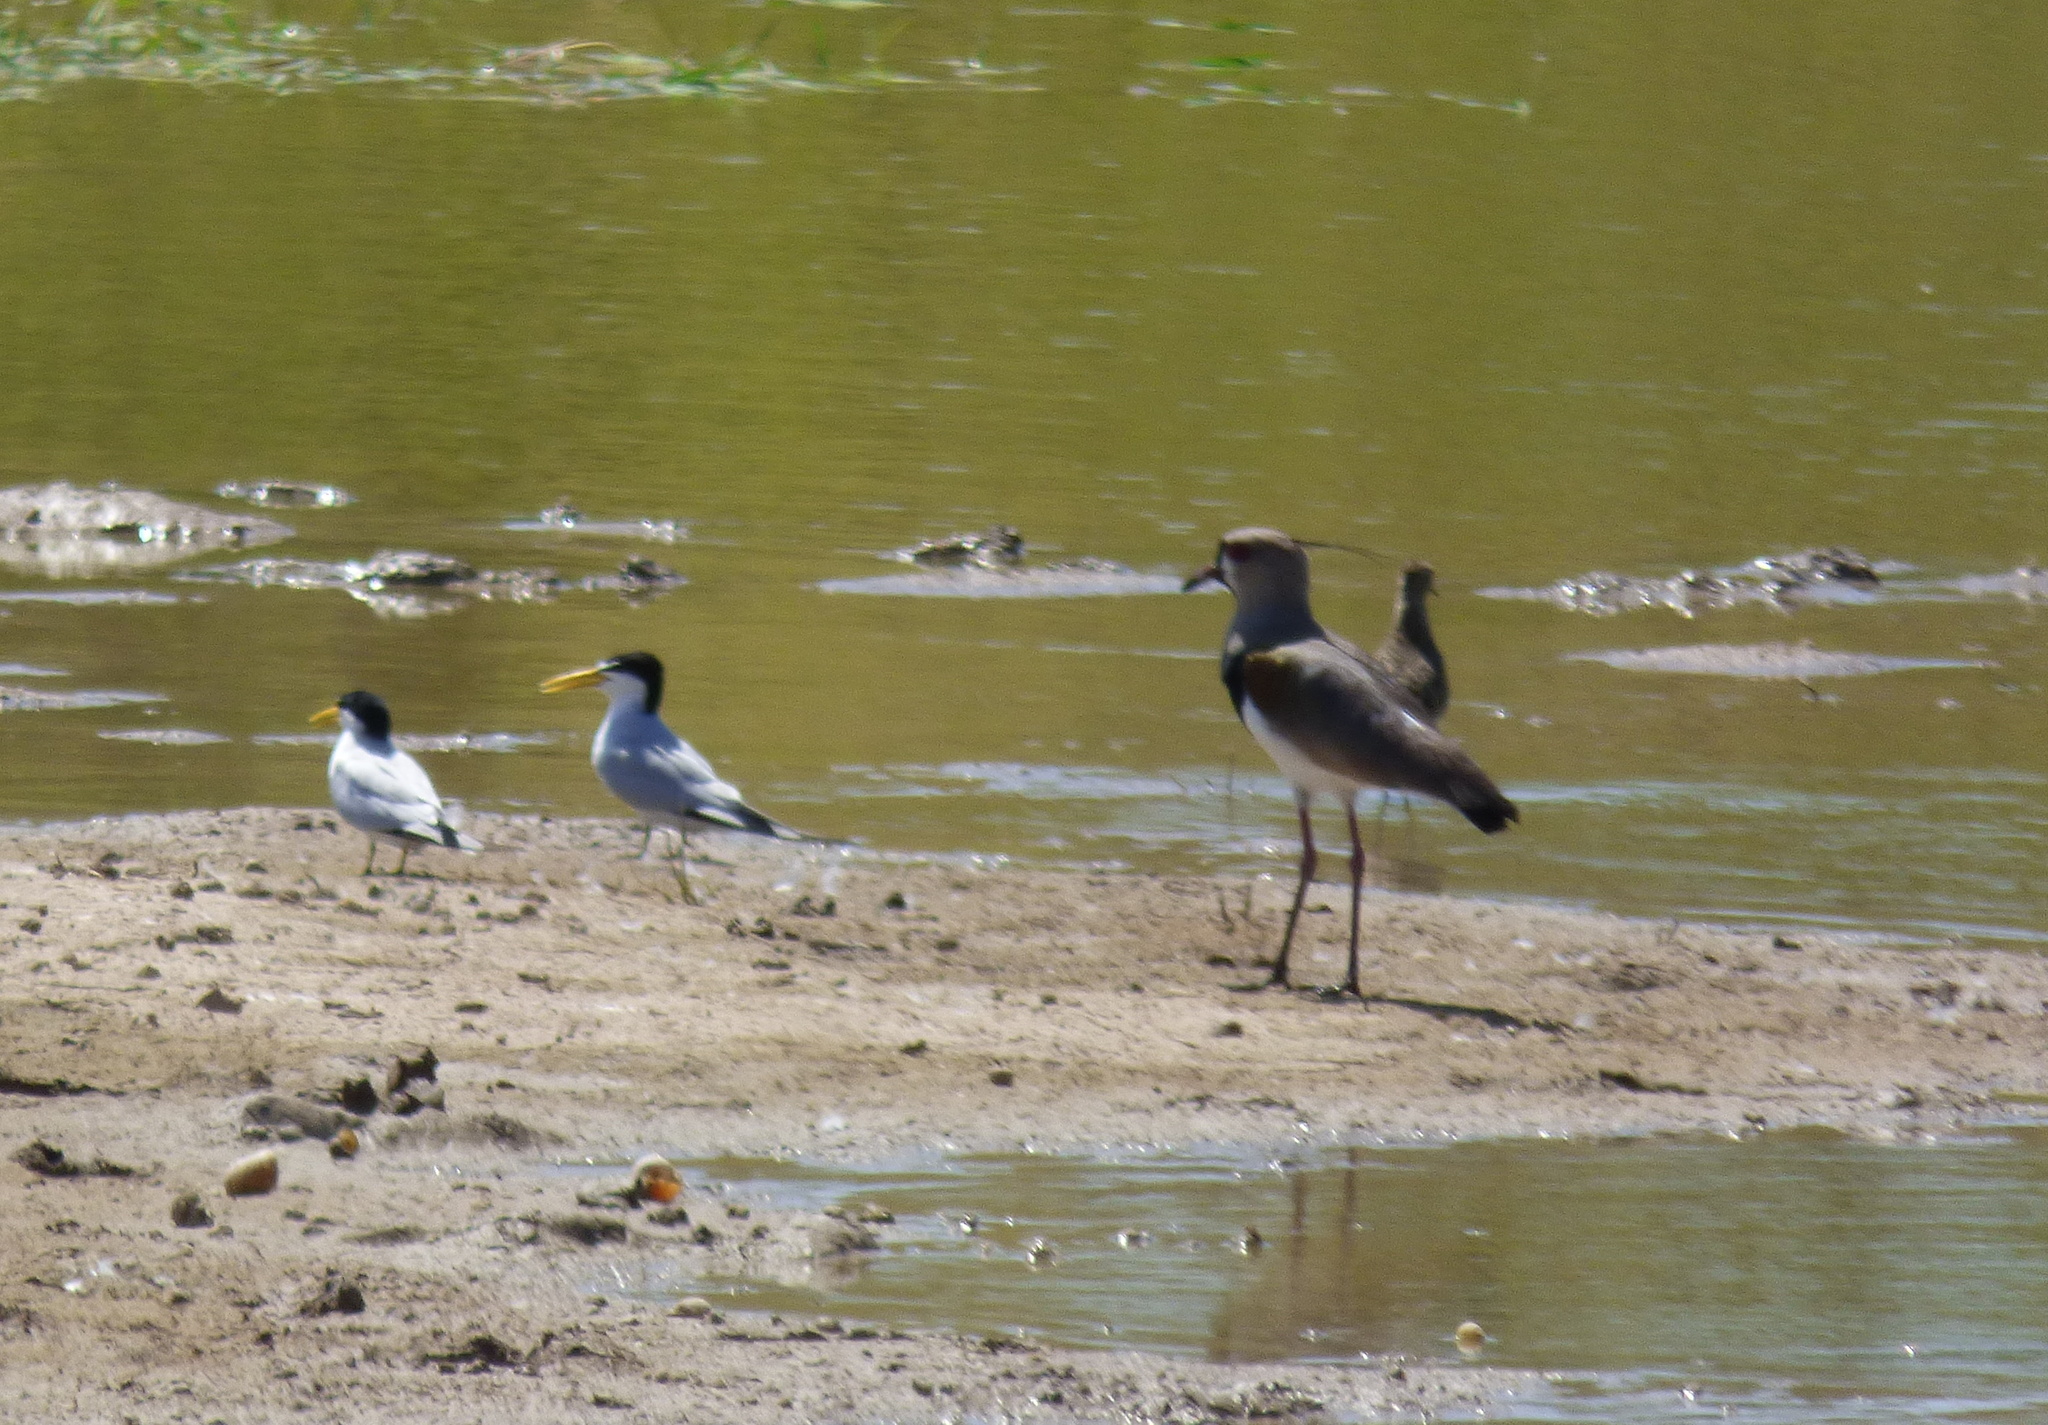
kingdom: Animalia
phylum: Chordata
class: Aves
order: Charadriiformes
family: Charadriidae
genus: Vanellus
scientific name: Vanellus chilensis
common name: Southern lapwing
